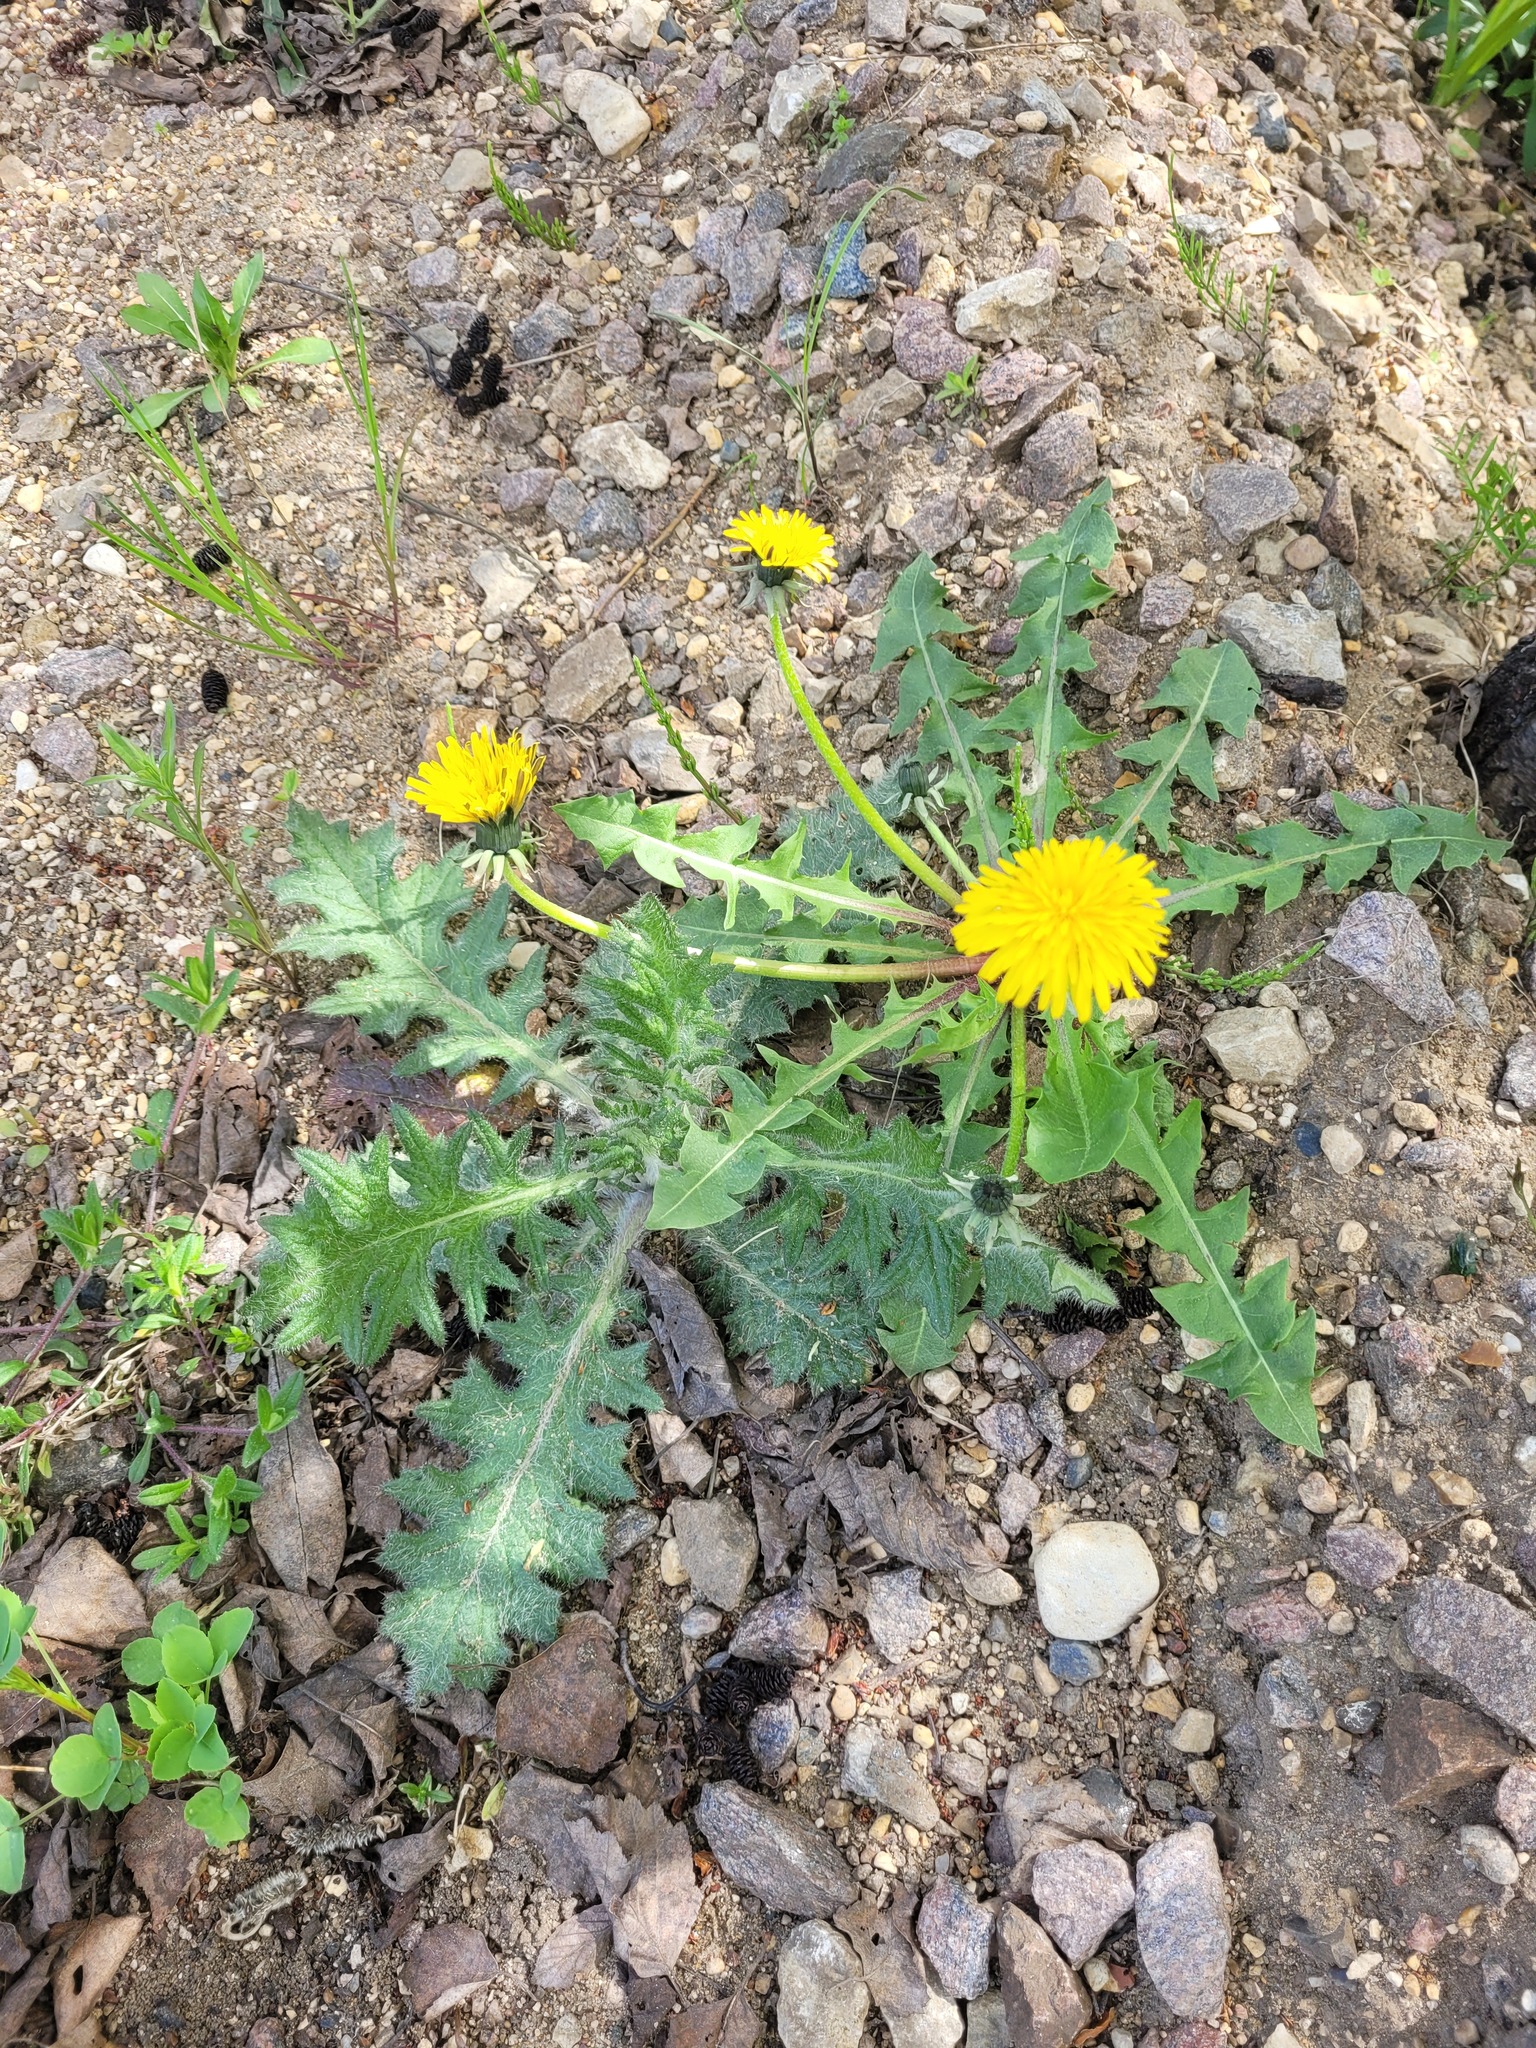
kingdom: Plantae
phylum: Tracheophyta
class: Magnoliopsida
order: Asterales
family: Asteraceae
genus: Cirsium
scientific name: Cirsium vulgare
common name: Bull thistle
